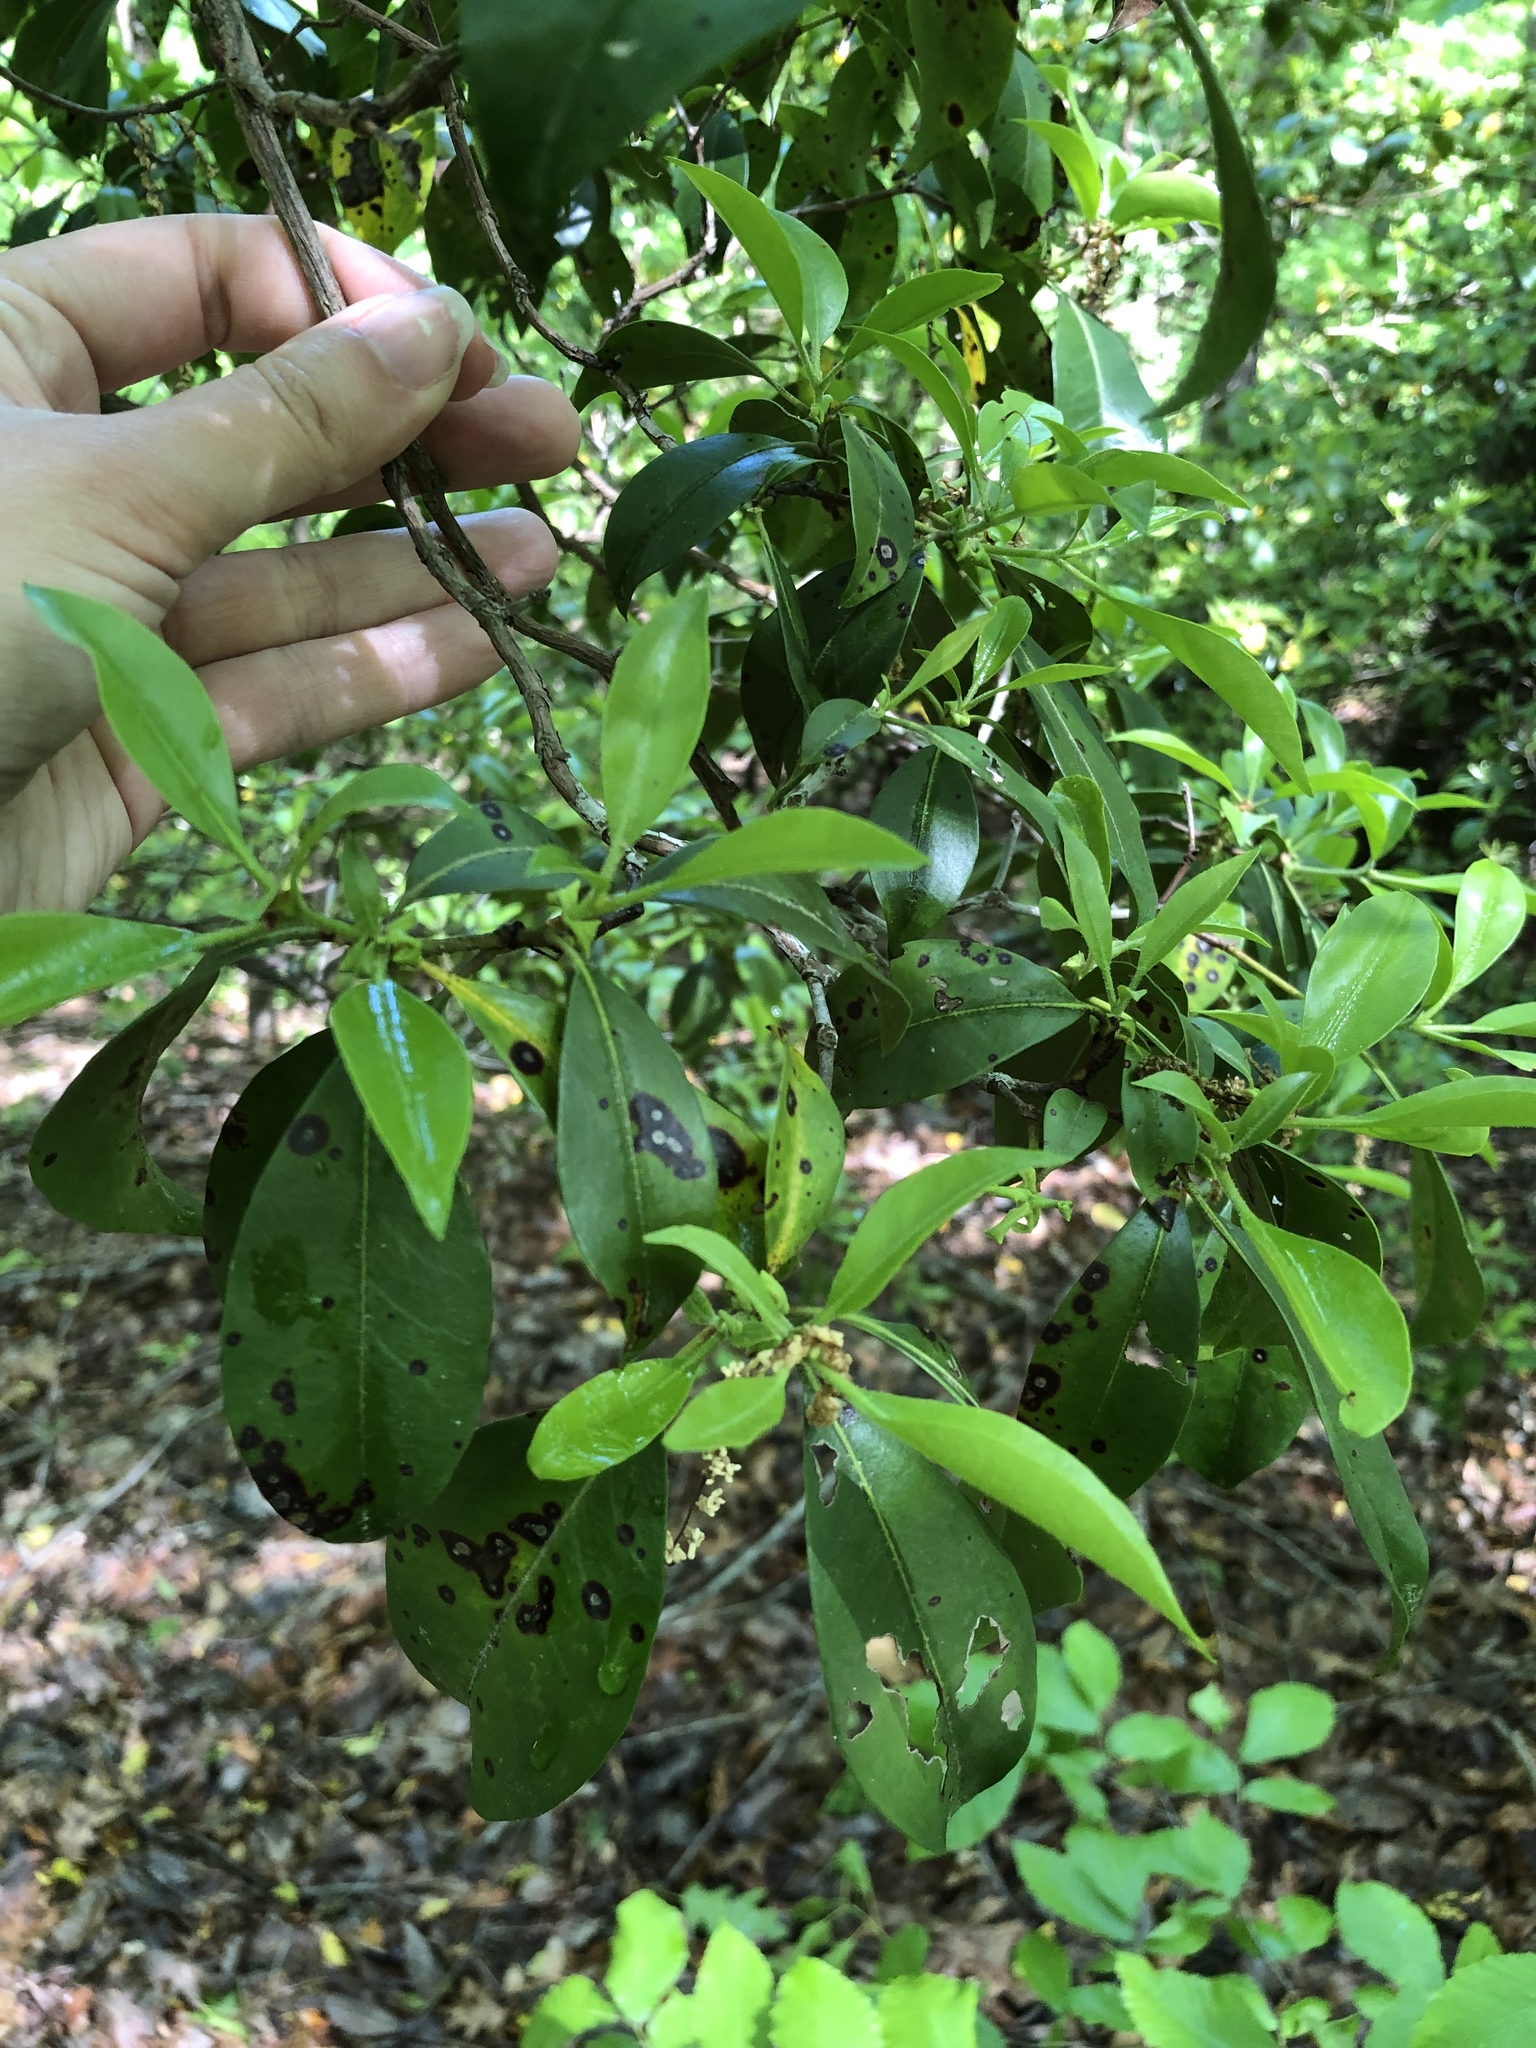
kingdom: Plantae
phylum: Tracheophyta
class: Magnoliopsida
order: Ericales
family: Ericaceae
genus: Kalmia
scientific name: Kalmia latifolia
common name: Mountain-laurel
